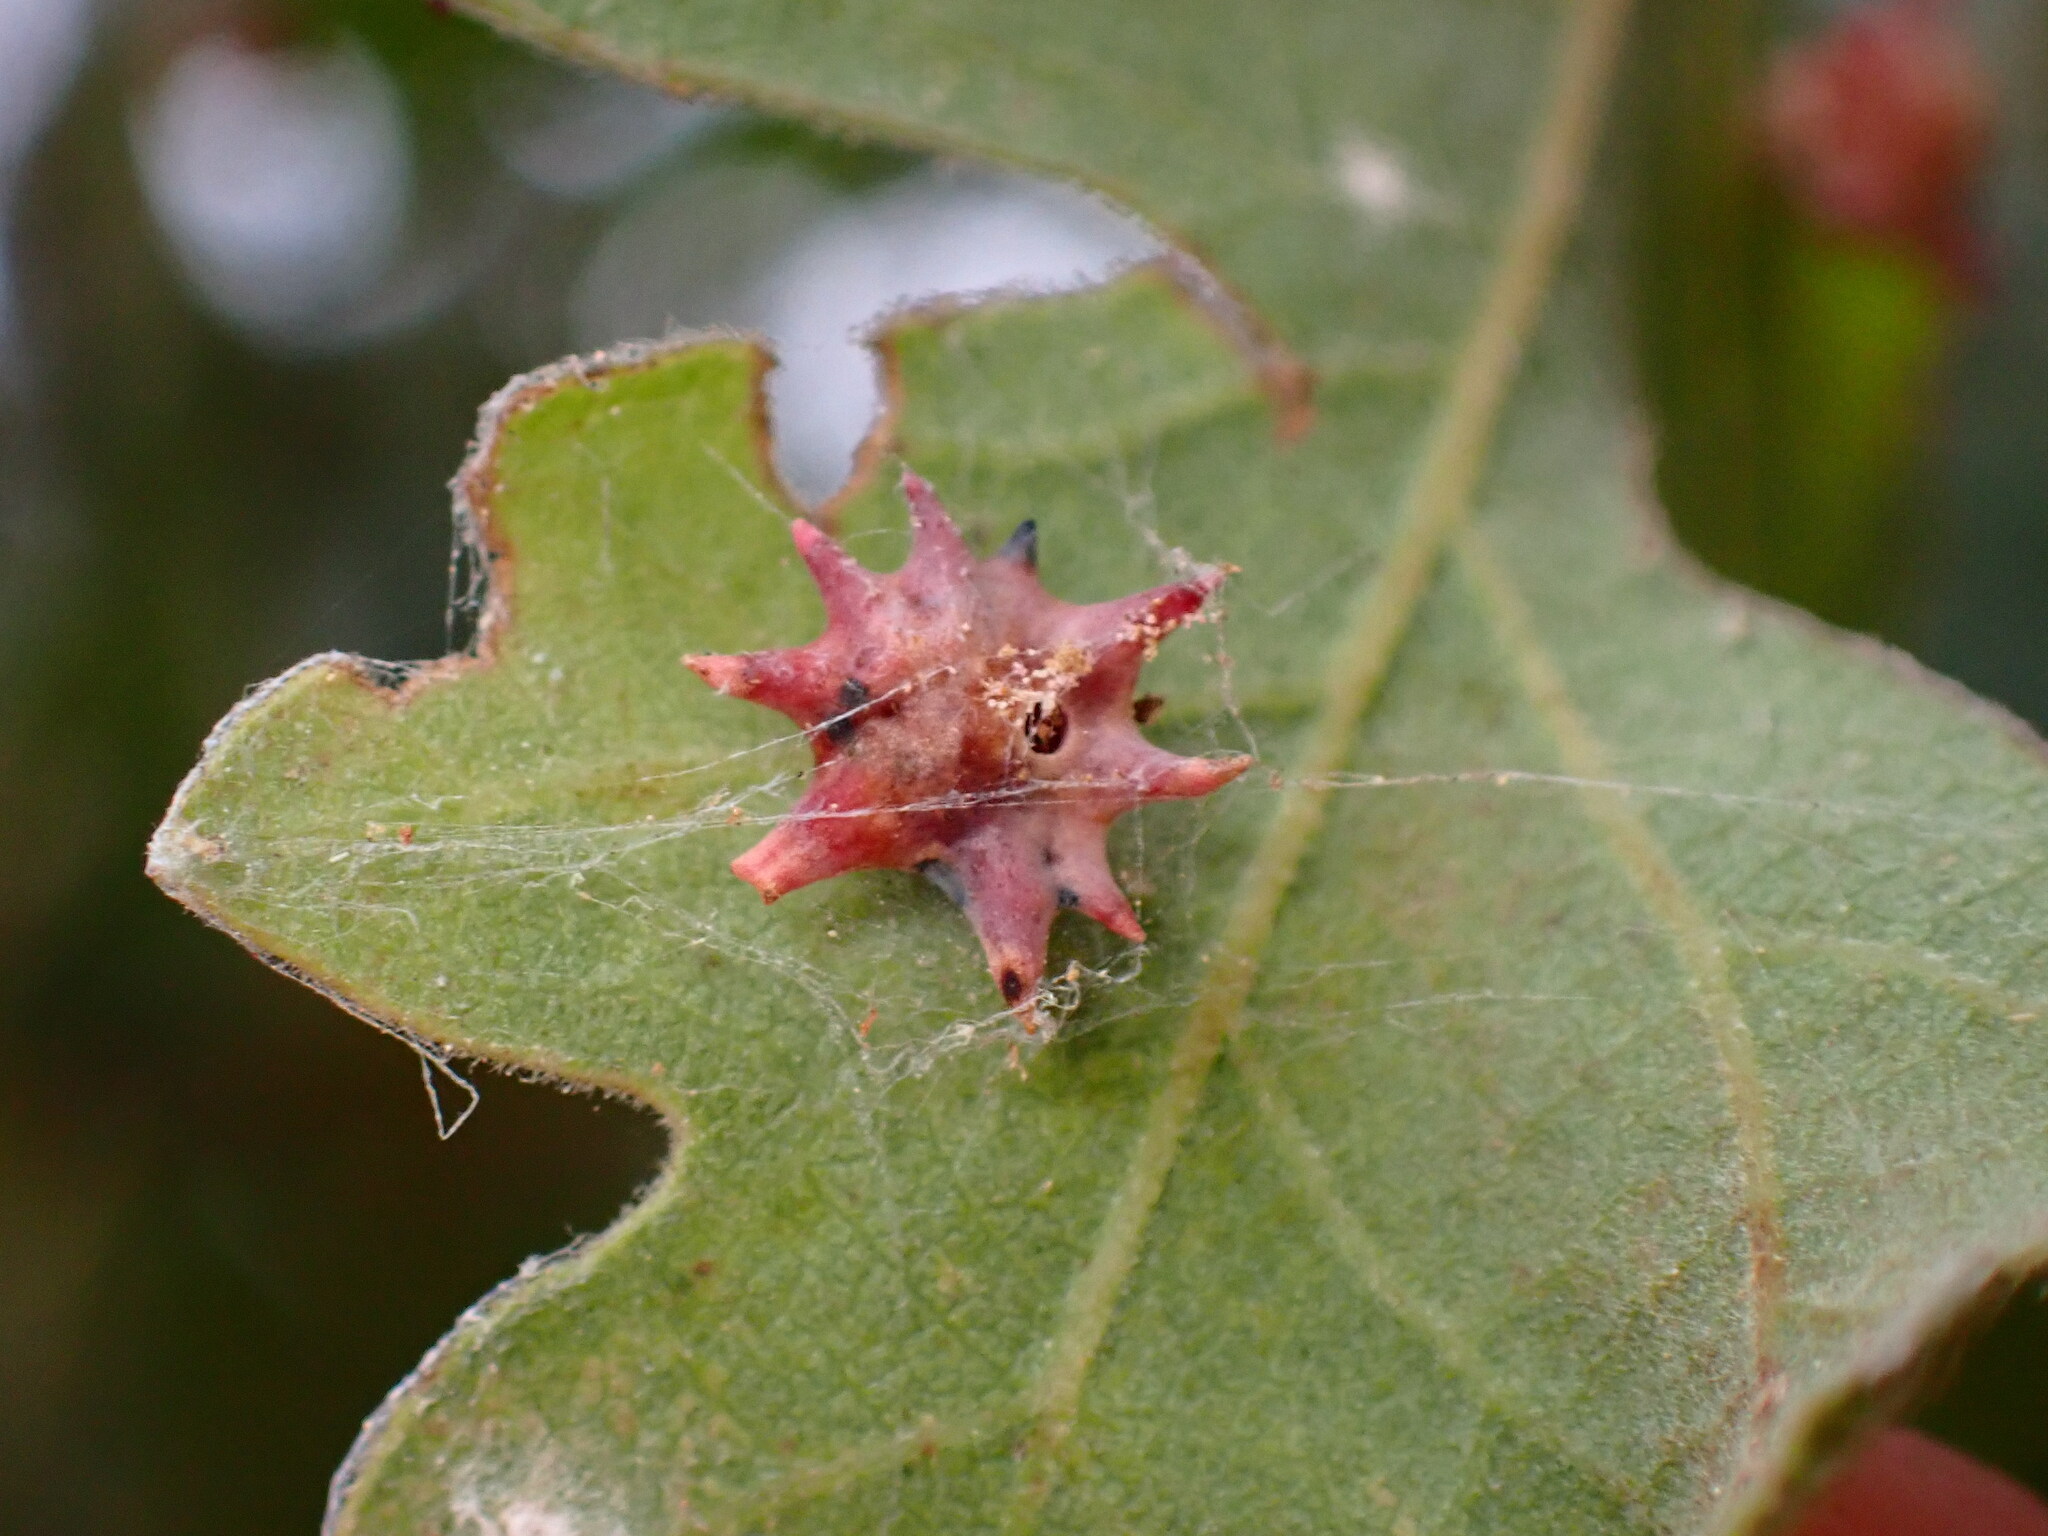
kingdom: Animalia
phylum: Arthropoda
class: Insecta
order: Hymenoptera
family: Cynipidae
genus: Cynips
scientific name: Cynips douglasi
